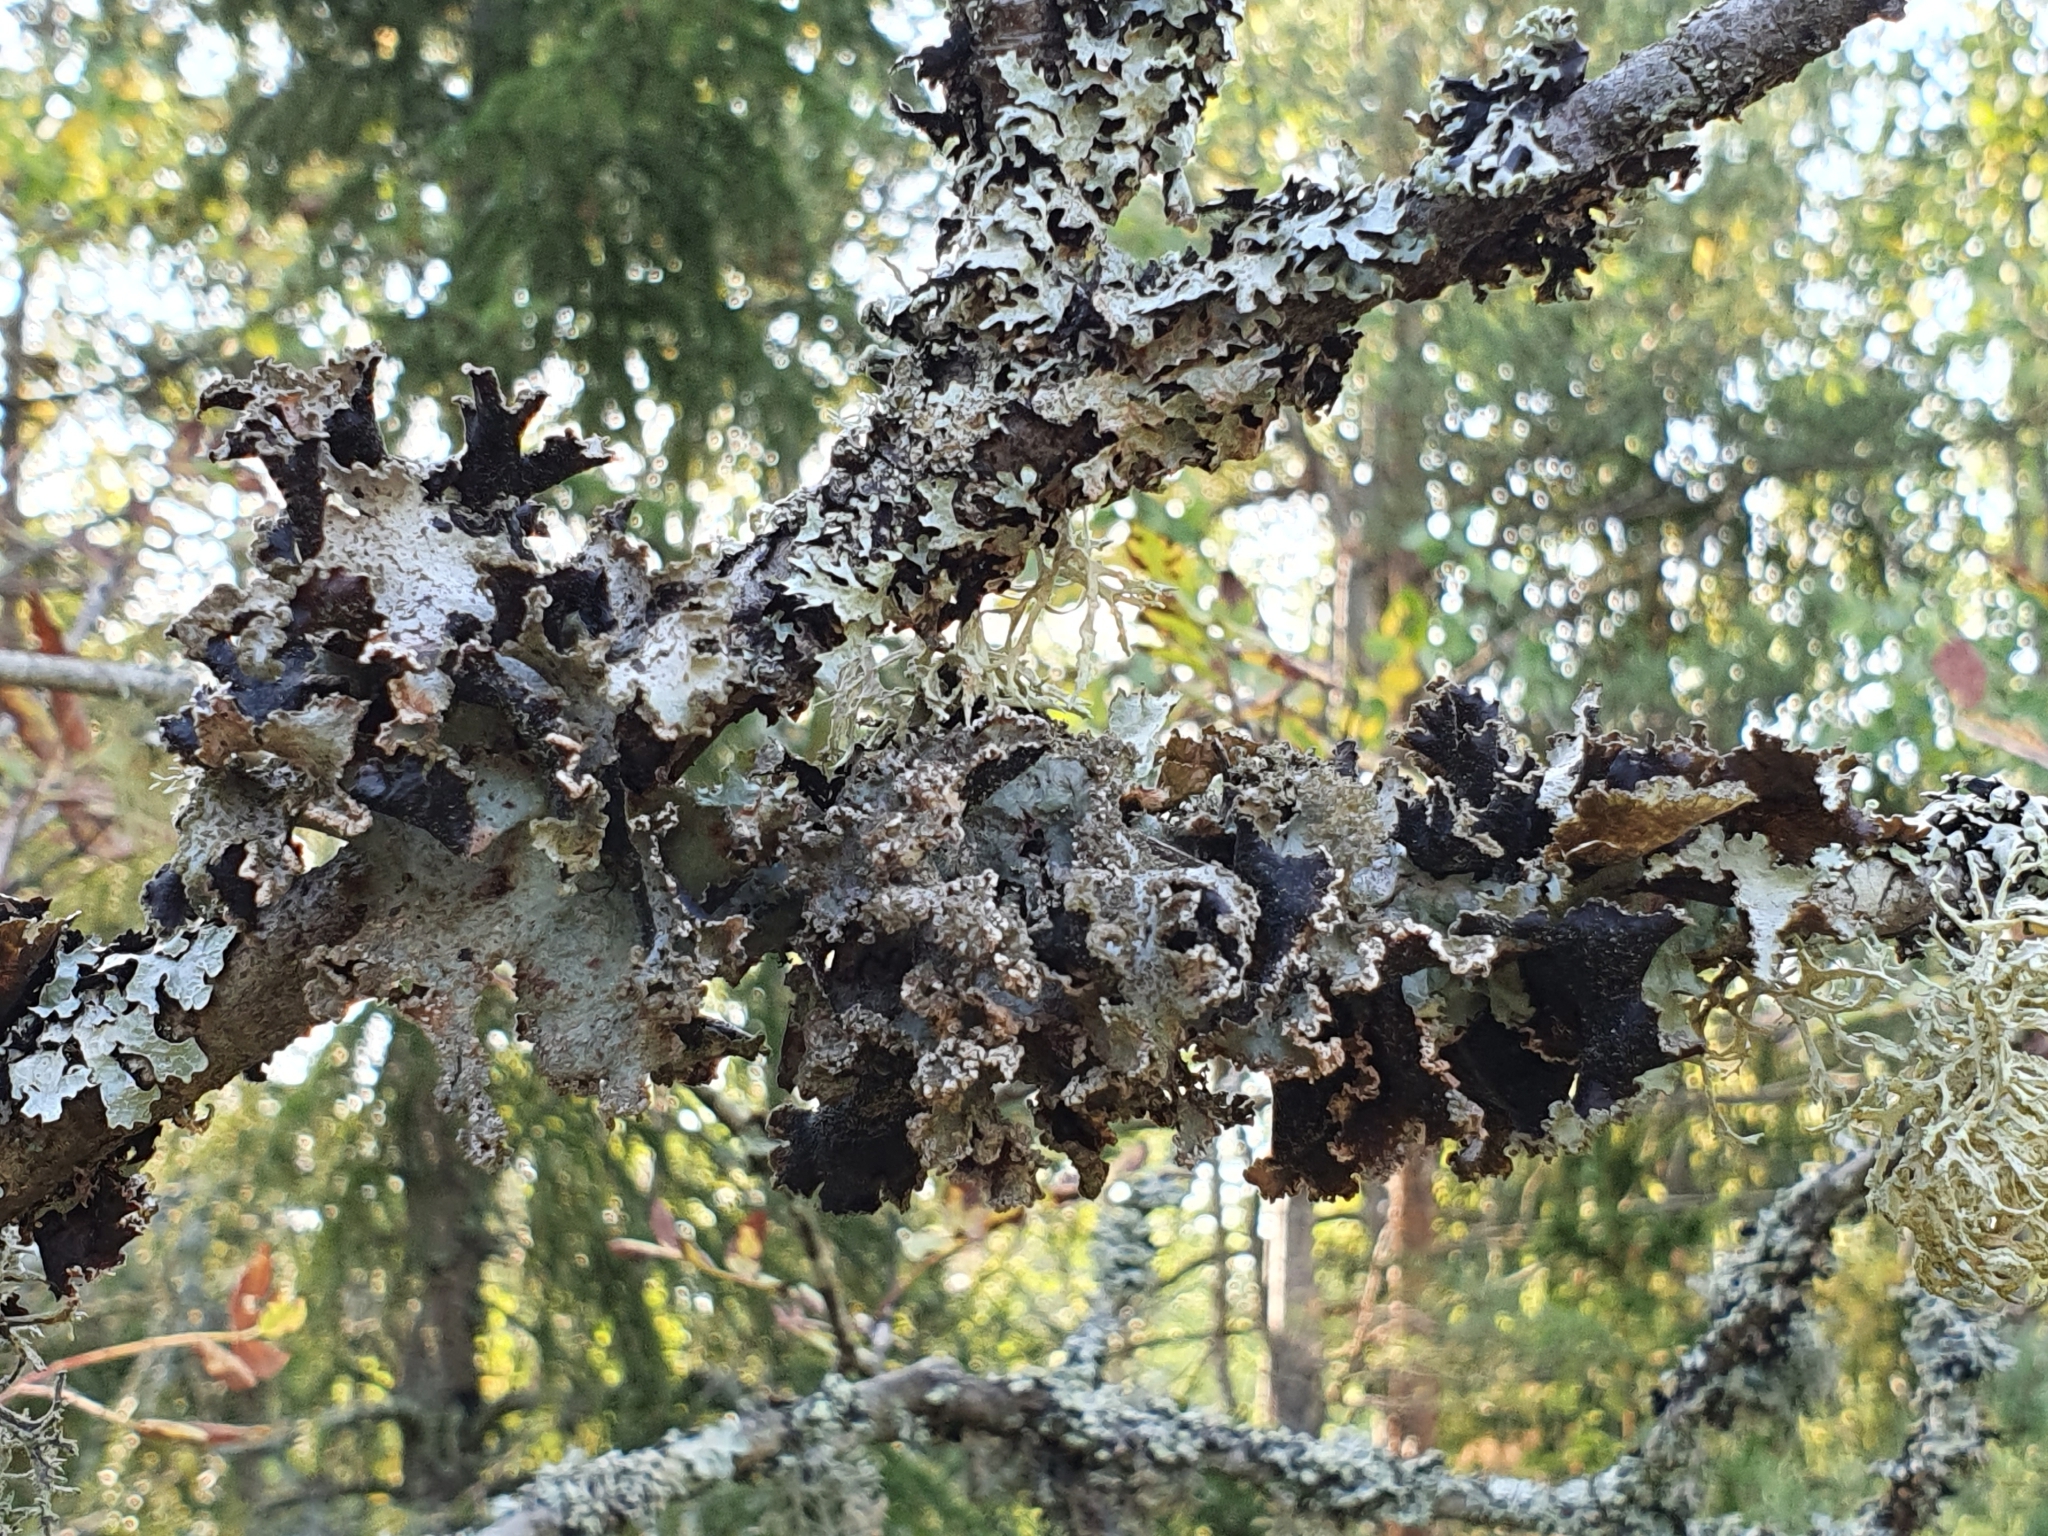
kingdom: Fungi
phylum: Ascomycota
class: Lecanoromycetes
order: Lecanorales
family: Parmeliaceae
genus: Platismatia
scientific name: Platismatia glauca
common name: Varied rag lichen
